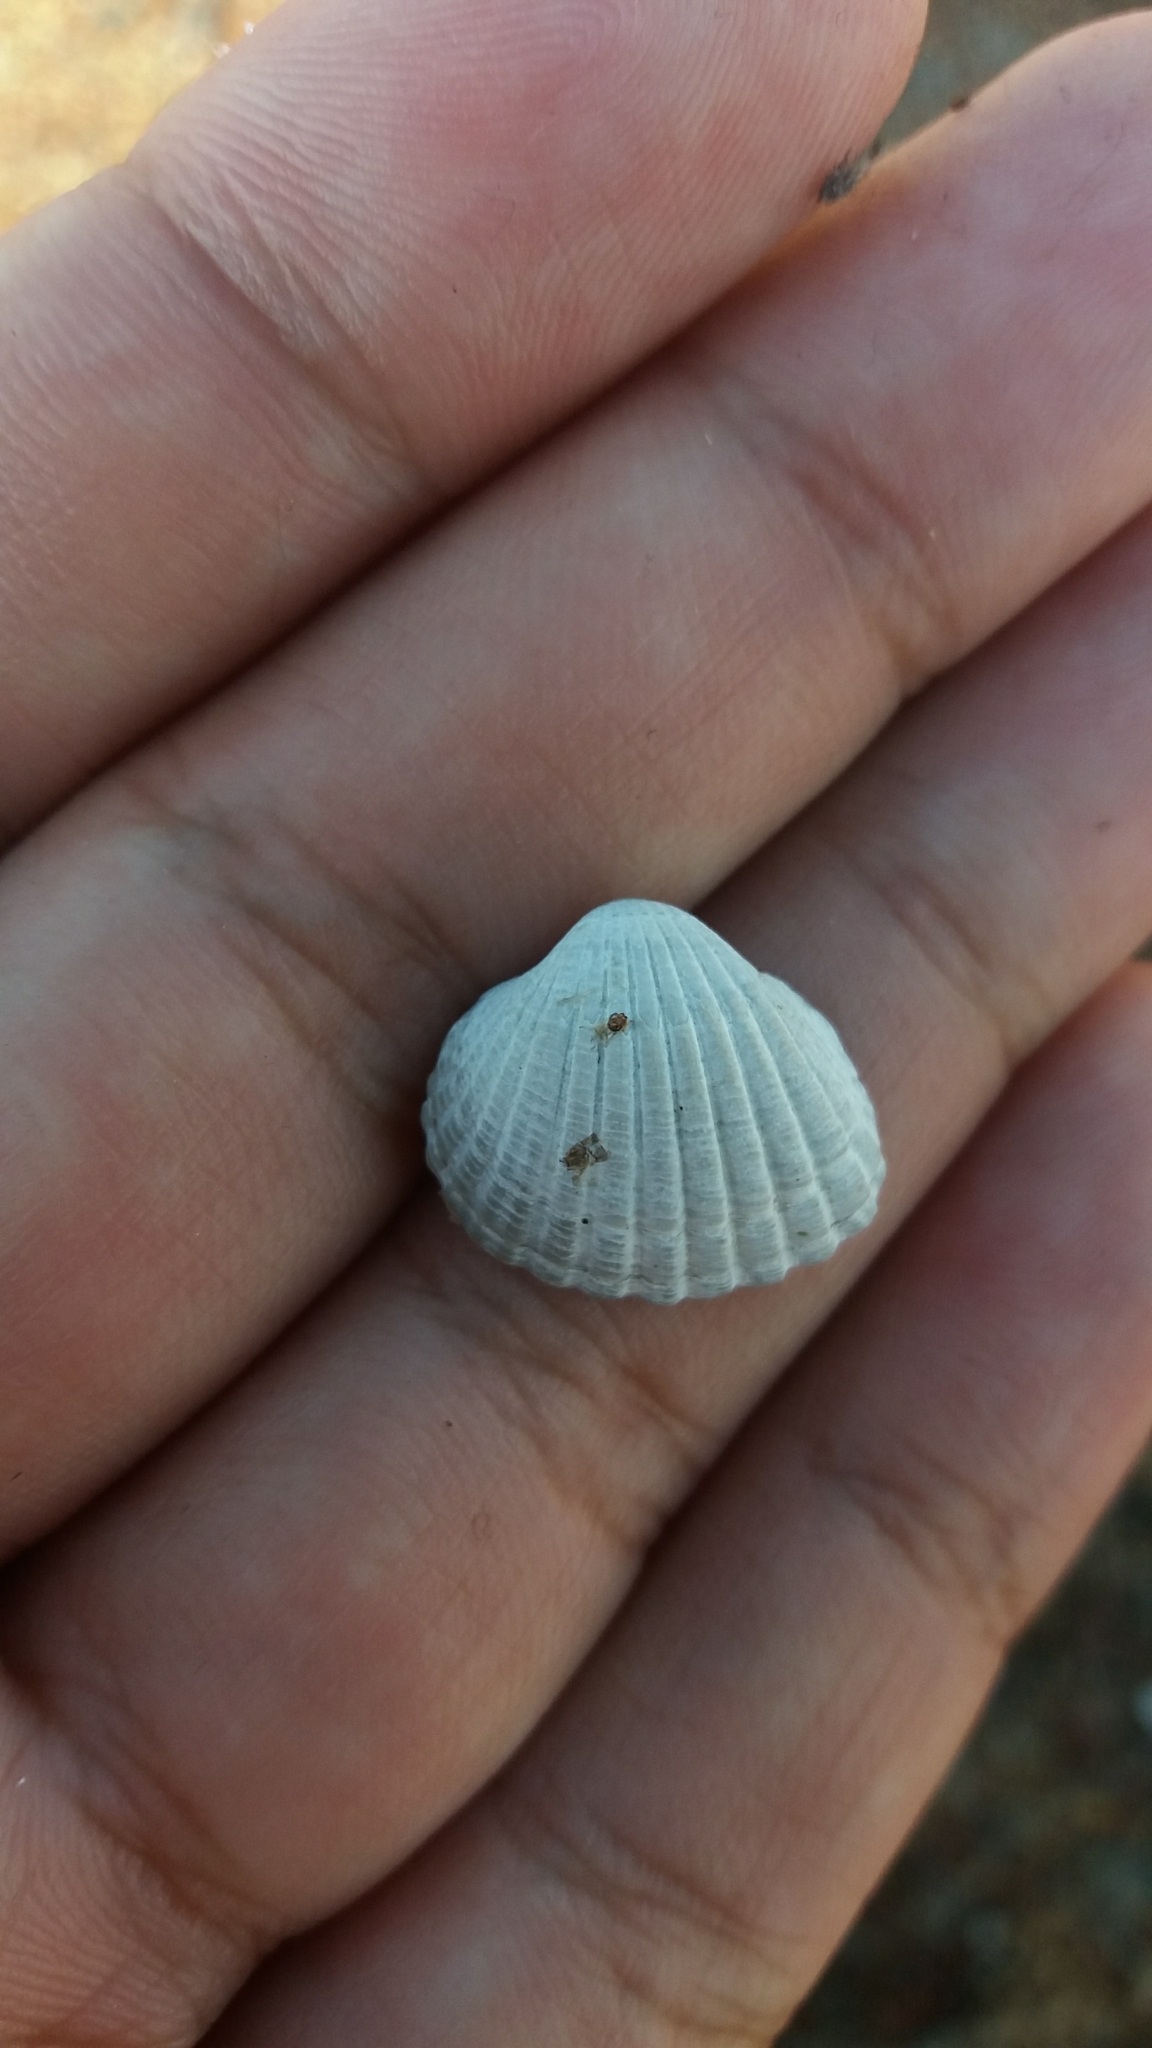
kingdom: Animalia
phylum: Mollusca
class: Bivalvia
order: Cardiida
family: Cardiidae
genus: Cerastoderma
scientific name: Cerastoderma glaucum
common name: Lagoon cockle
